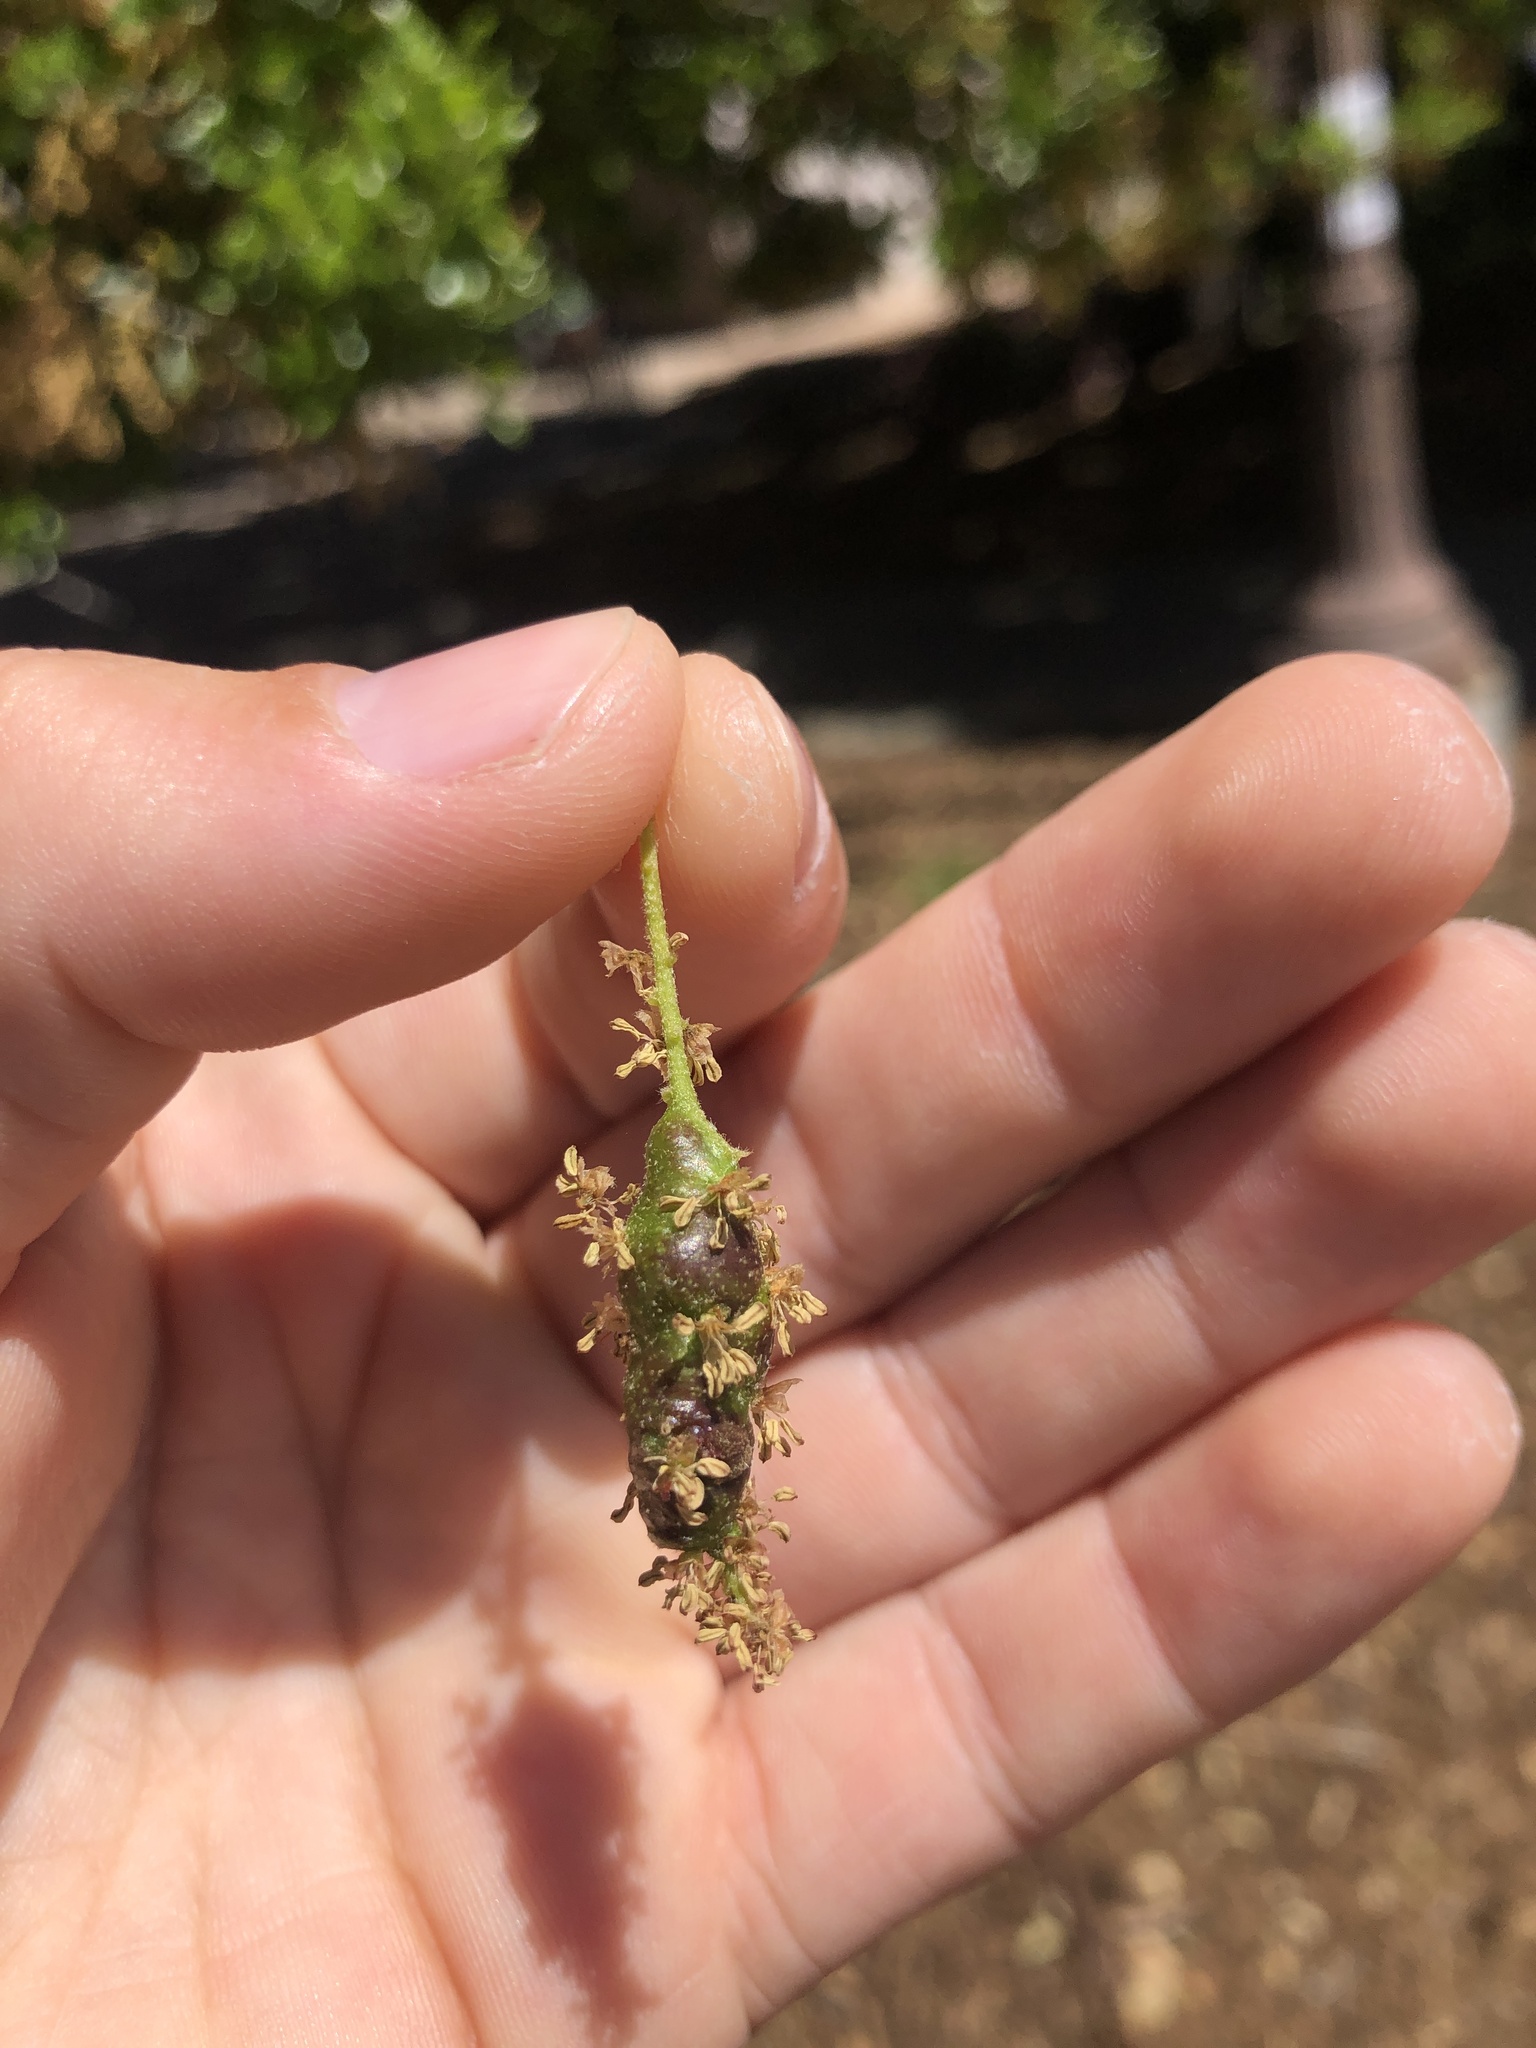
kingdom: Animalia
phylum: Arthropoda
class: Insecta
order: Hymenoptera
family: Cynipidae
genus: Callirhytis
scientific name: Callirhytis
